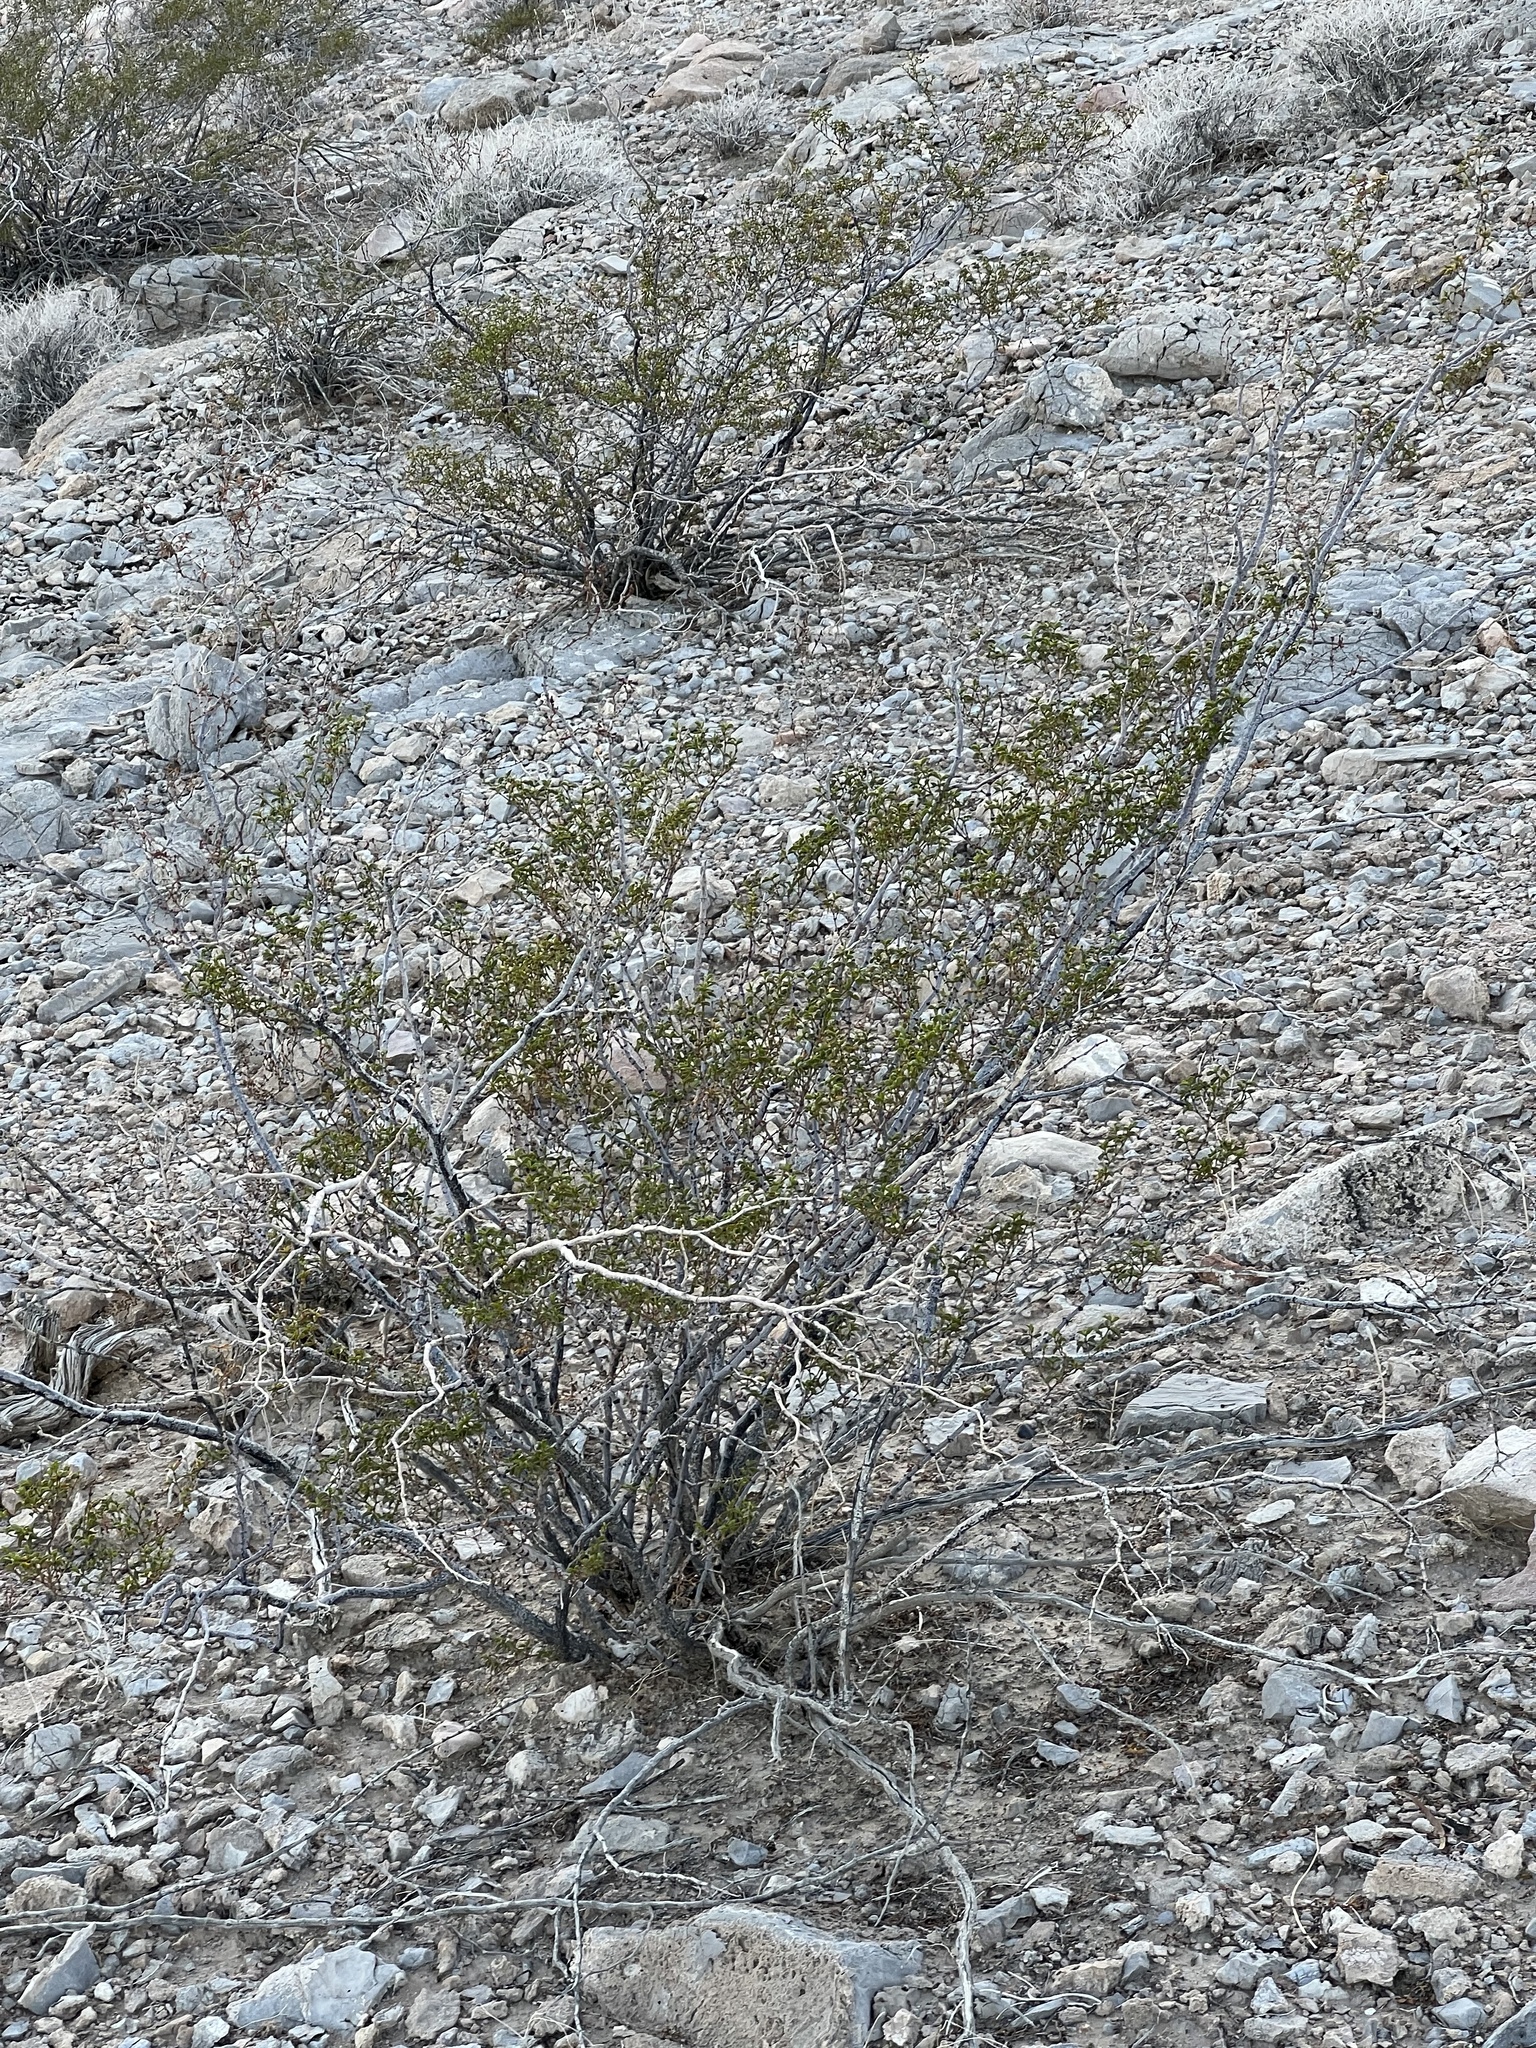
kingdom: Plantae
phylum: Tracheophyta
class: Magnoliopsida
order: Zygophyllales
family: Zygophyllaceae
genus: Larrea
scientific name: Larrea tridentata
